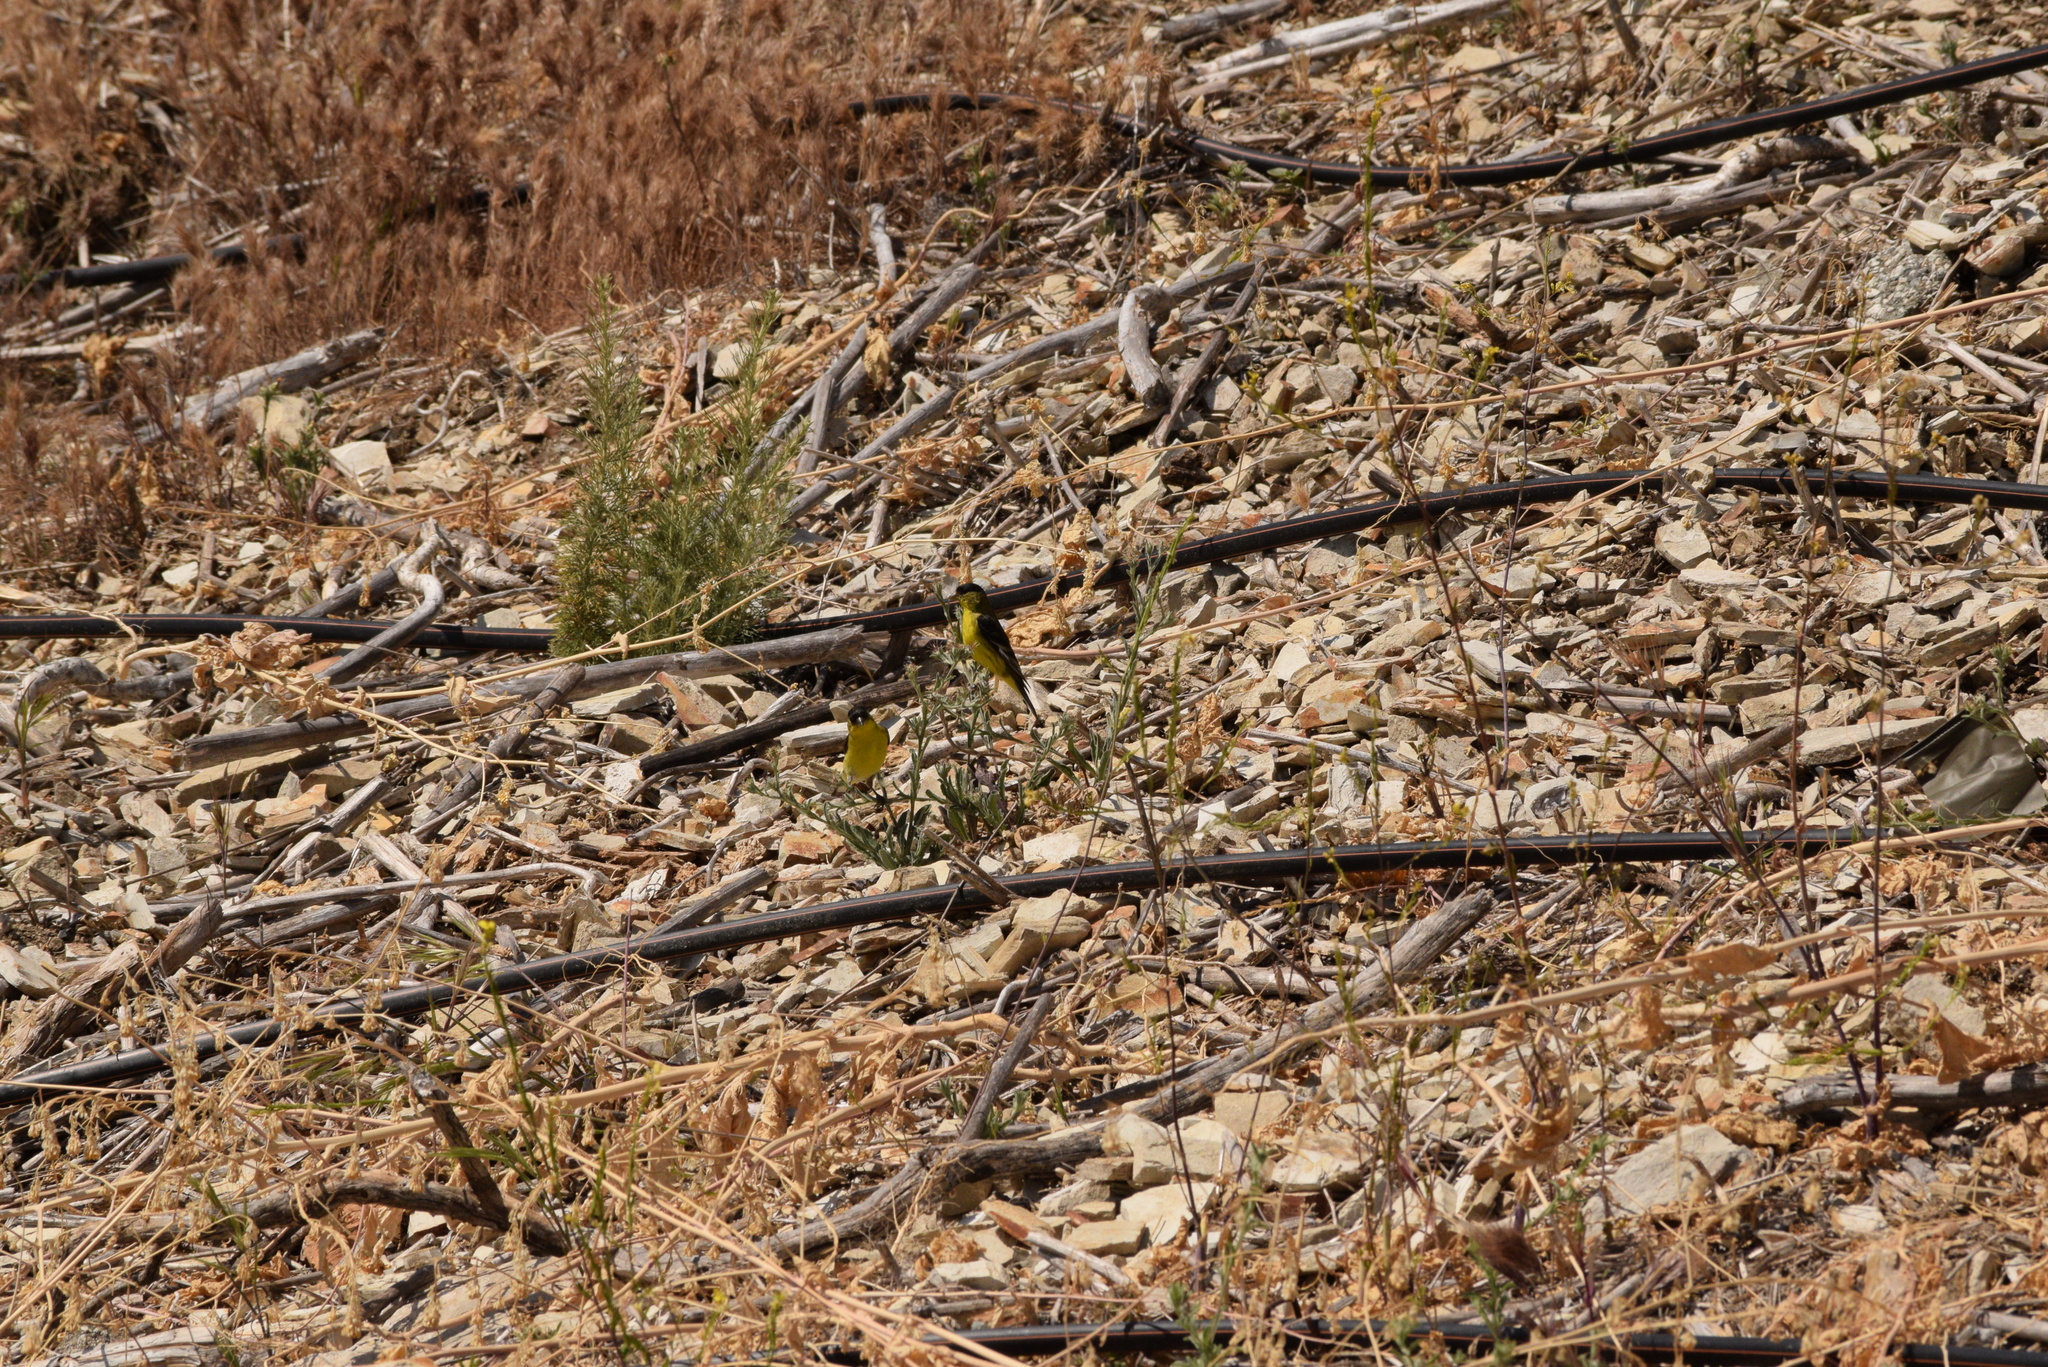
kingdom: Animalia
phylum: Chordata
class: Aves
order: Passeriformes
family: Fringillidae
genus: Spinus
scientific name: Spinus psaltria
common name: Lesser goldfinch
